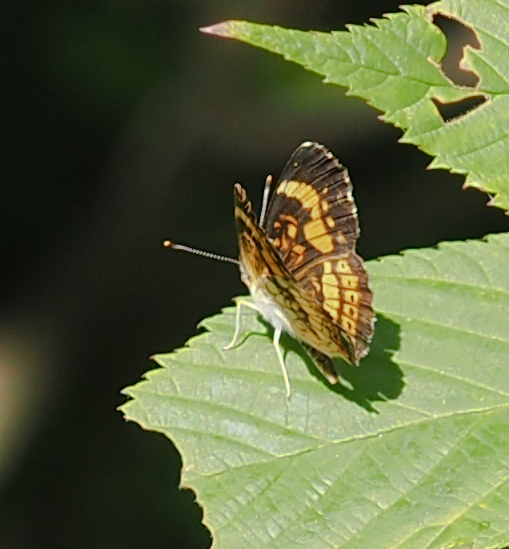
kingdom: Animalia
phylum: Arthropoda
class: Insecta
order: Lepidoptera
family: Nymphalidae
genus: Chlosyne
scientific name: Chlosyne nycteis
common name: Silvery checkerspot
